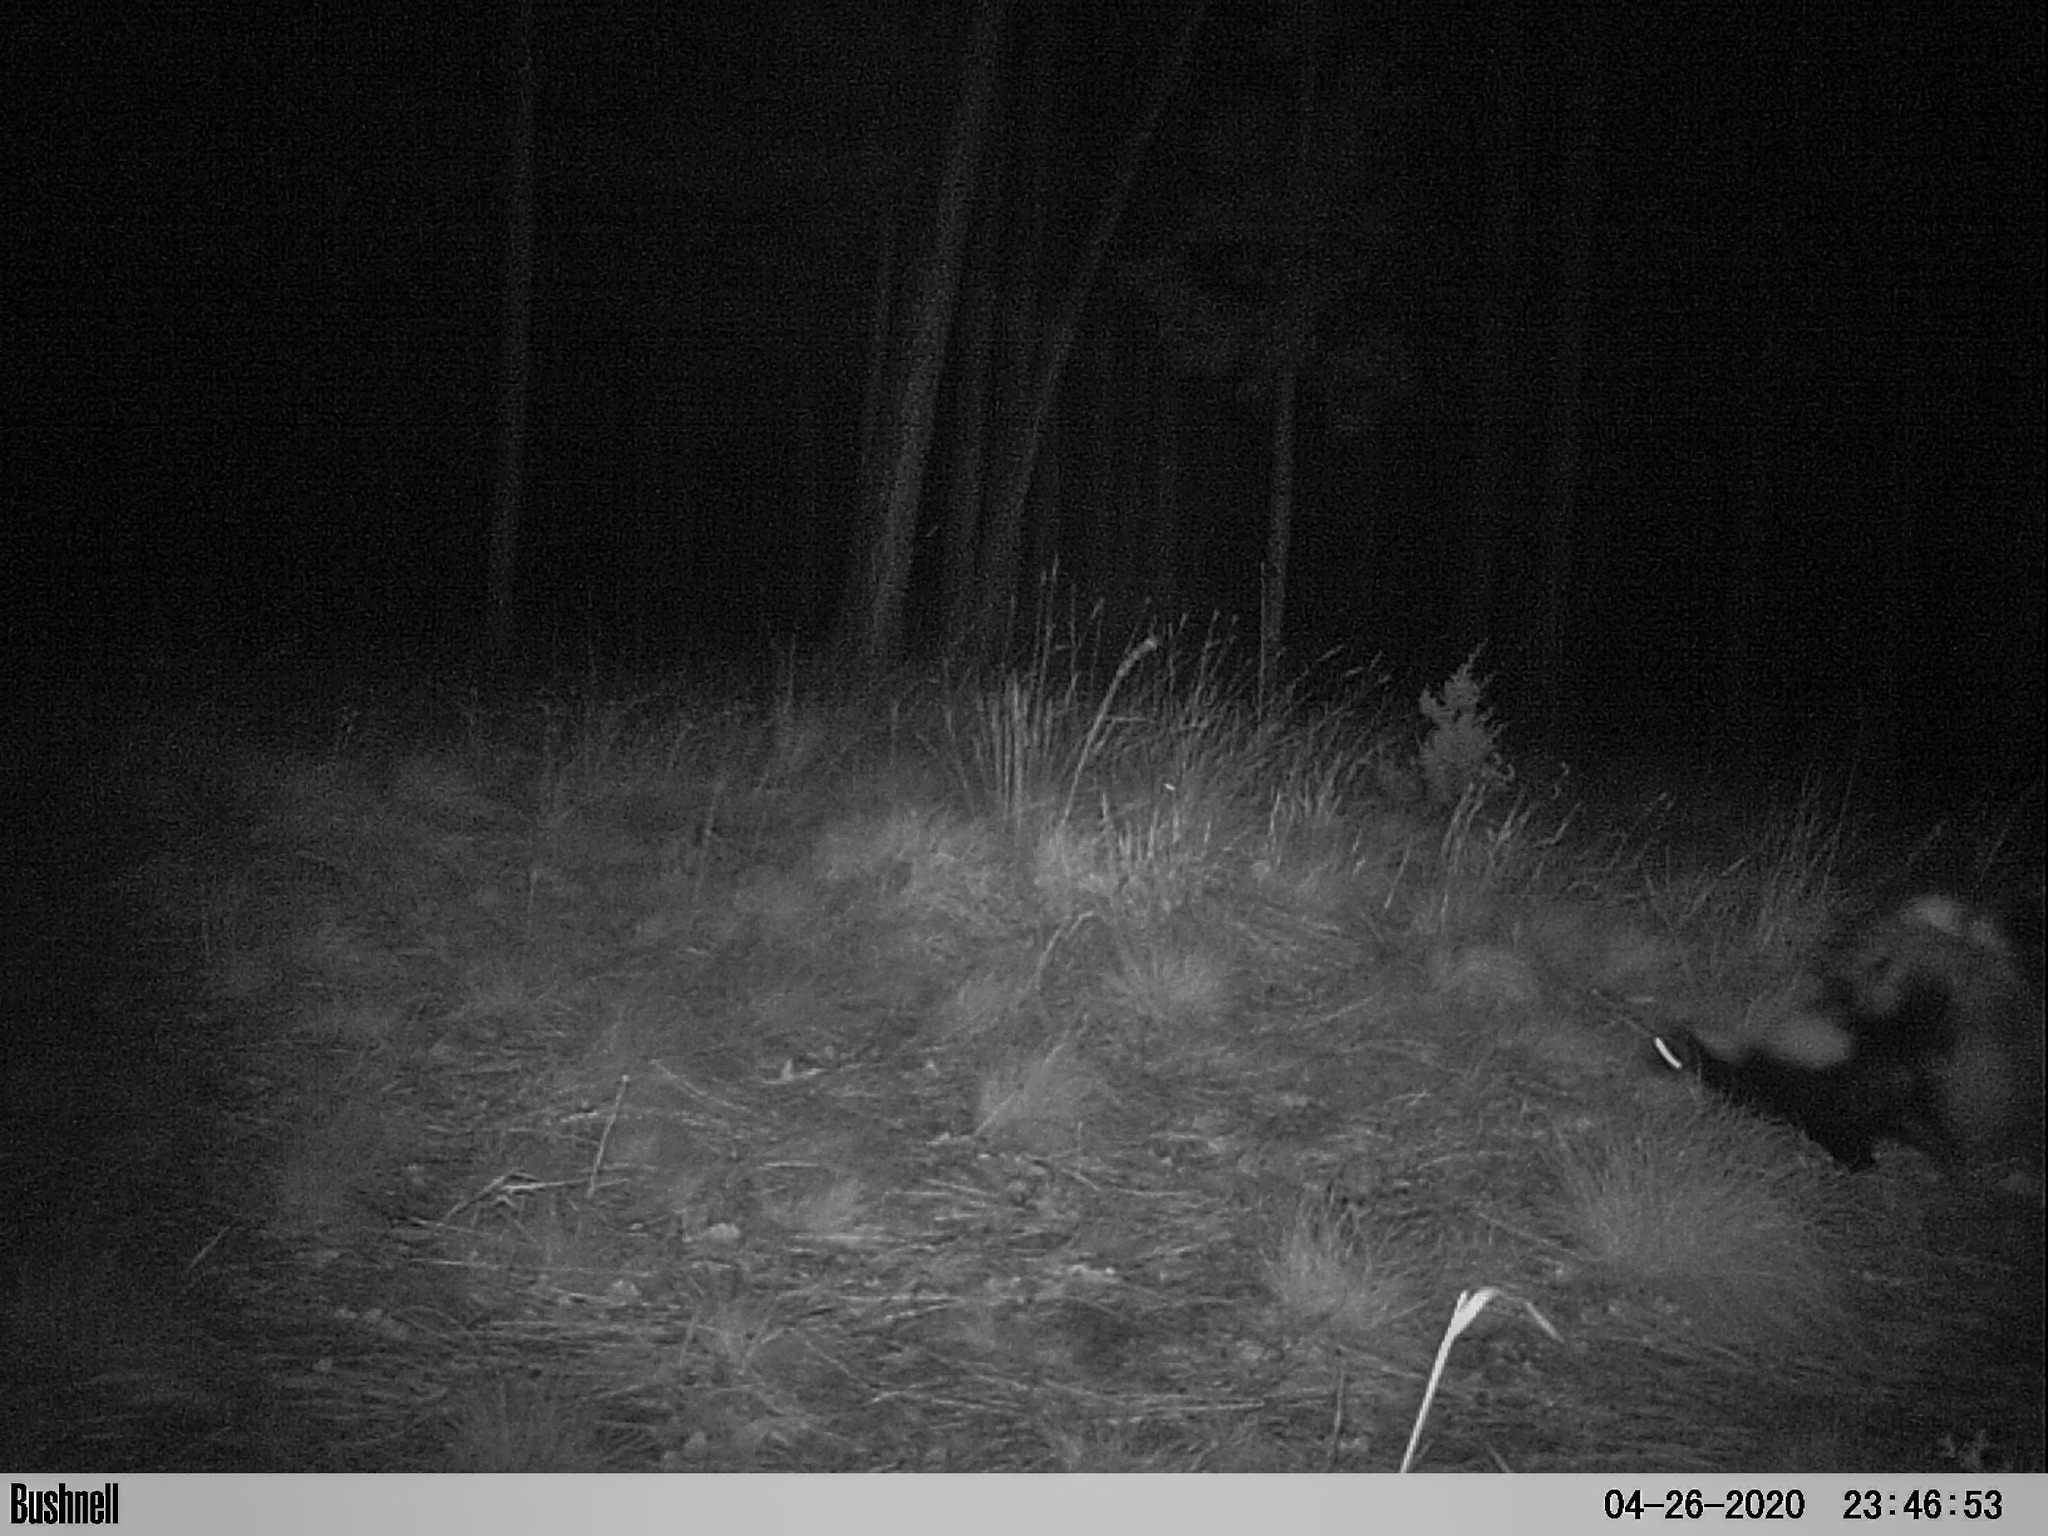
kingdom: Animalia
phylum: Chordata
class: Mammalia
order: Carnivora
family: Mephitidae
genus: Mephitis
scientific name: Mephitis mephitis
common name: Striped skunk
